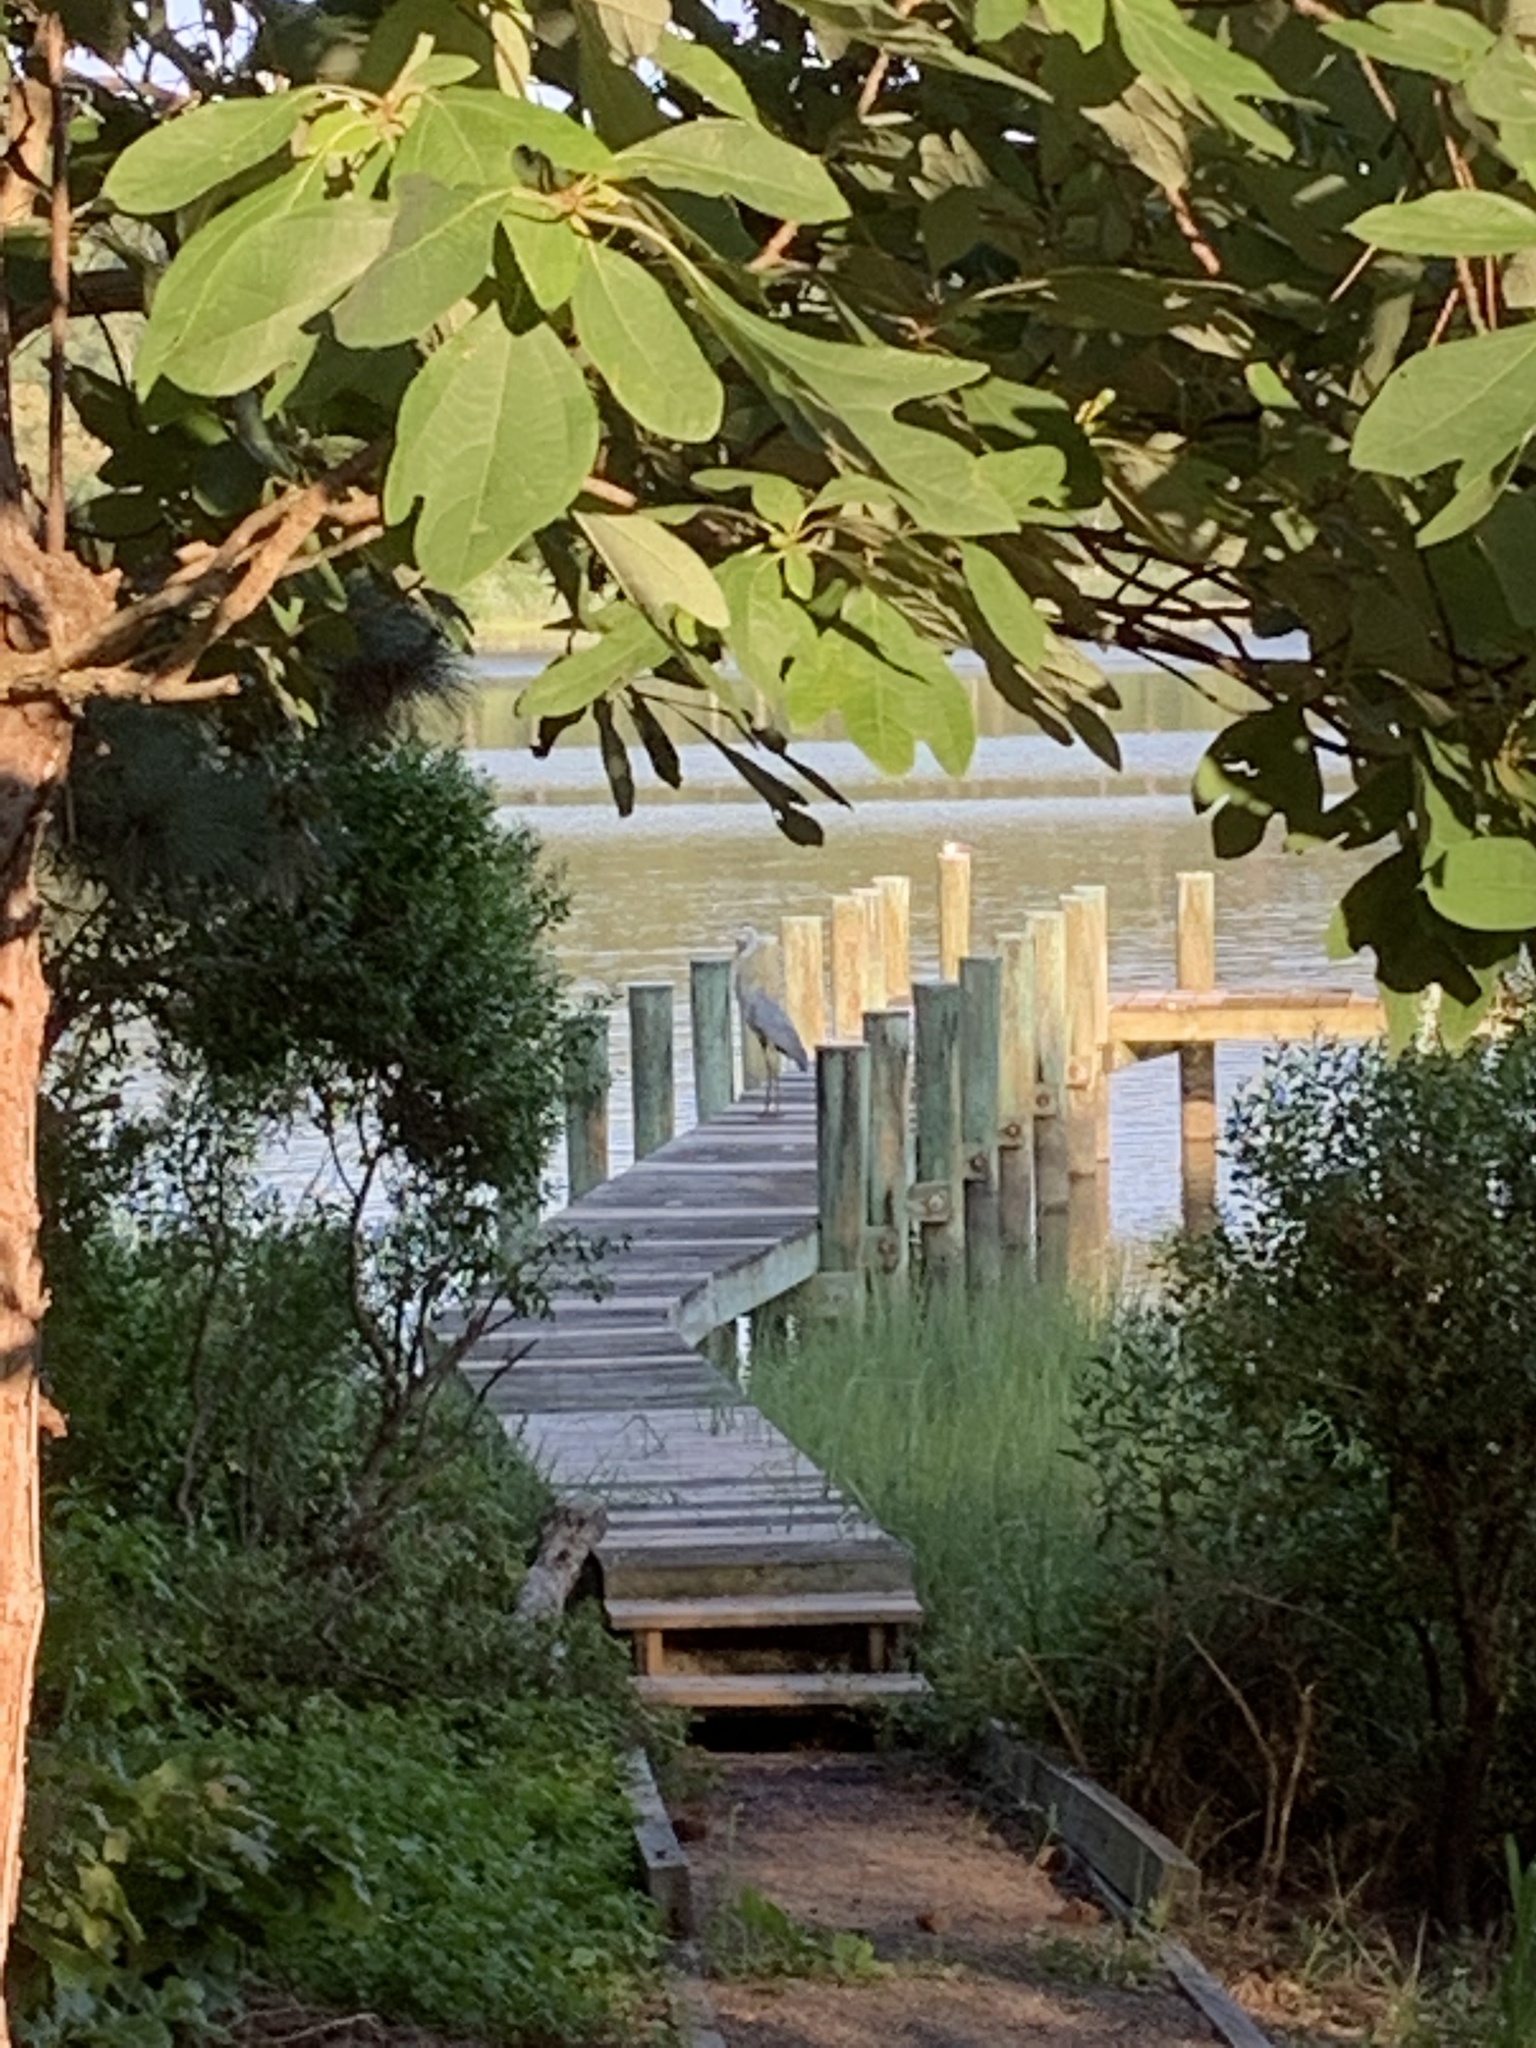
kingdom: Animalia
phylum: Chordata
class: Aves
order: Pelecaniformes
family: Ardeidae
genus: Ardea
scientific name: Ardea herodias
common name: Great blue heron
